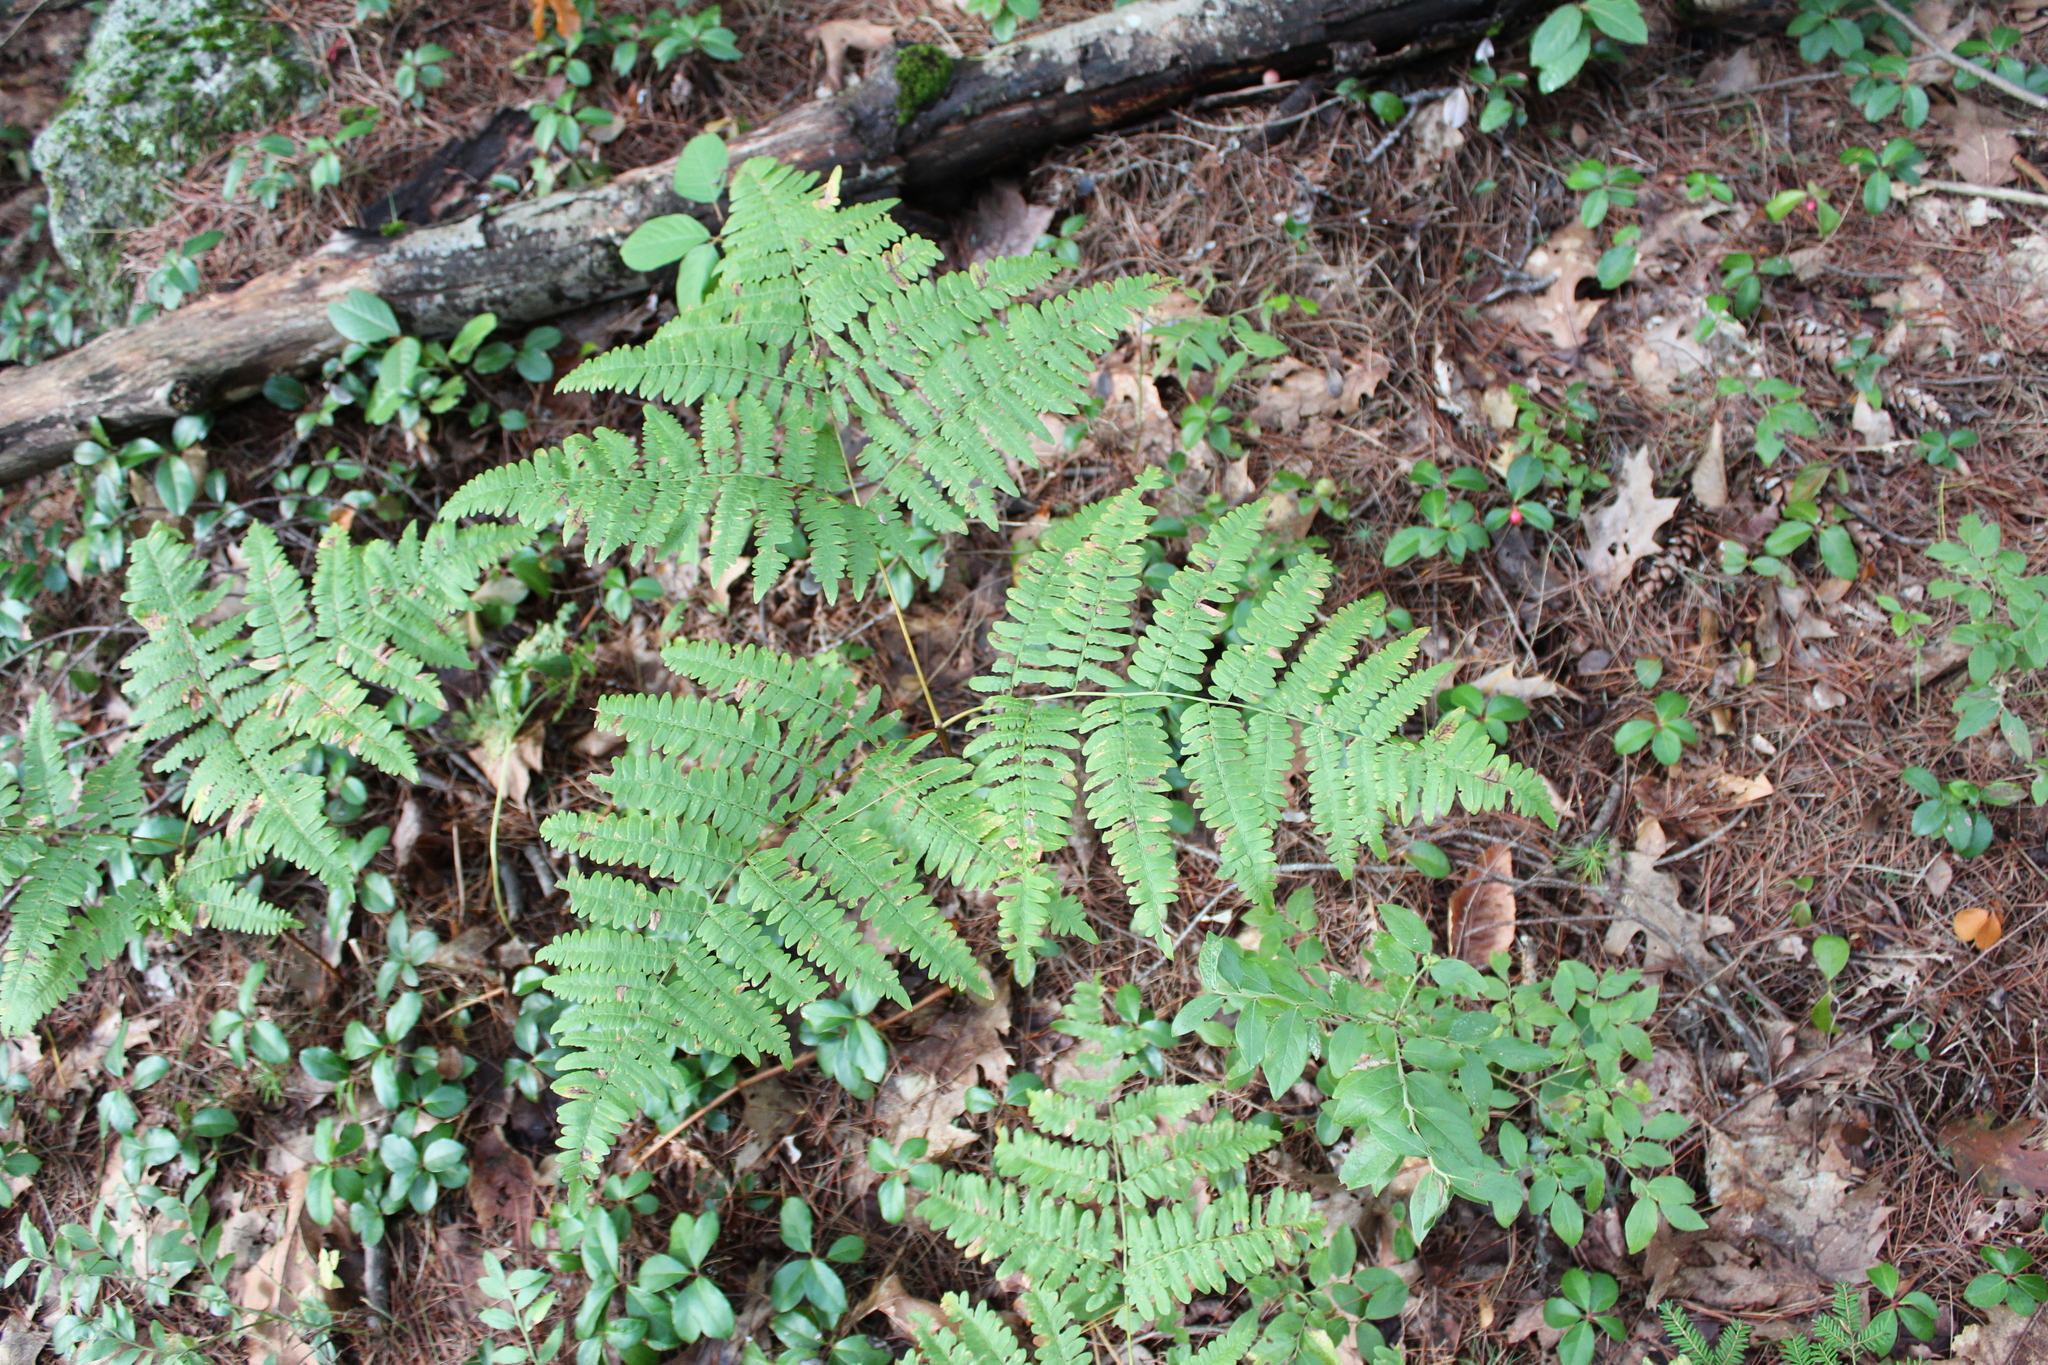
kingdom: Plantae
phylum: Tracheophyta
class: Polypodiopsida
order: Polypodiales
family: Dennstaedtiaceae
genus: Pteridium
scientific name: Pteridium aquilinum
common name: Bracken
